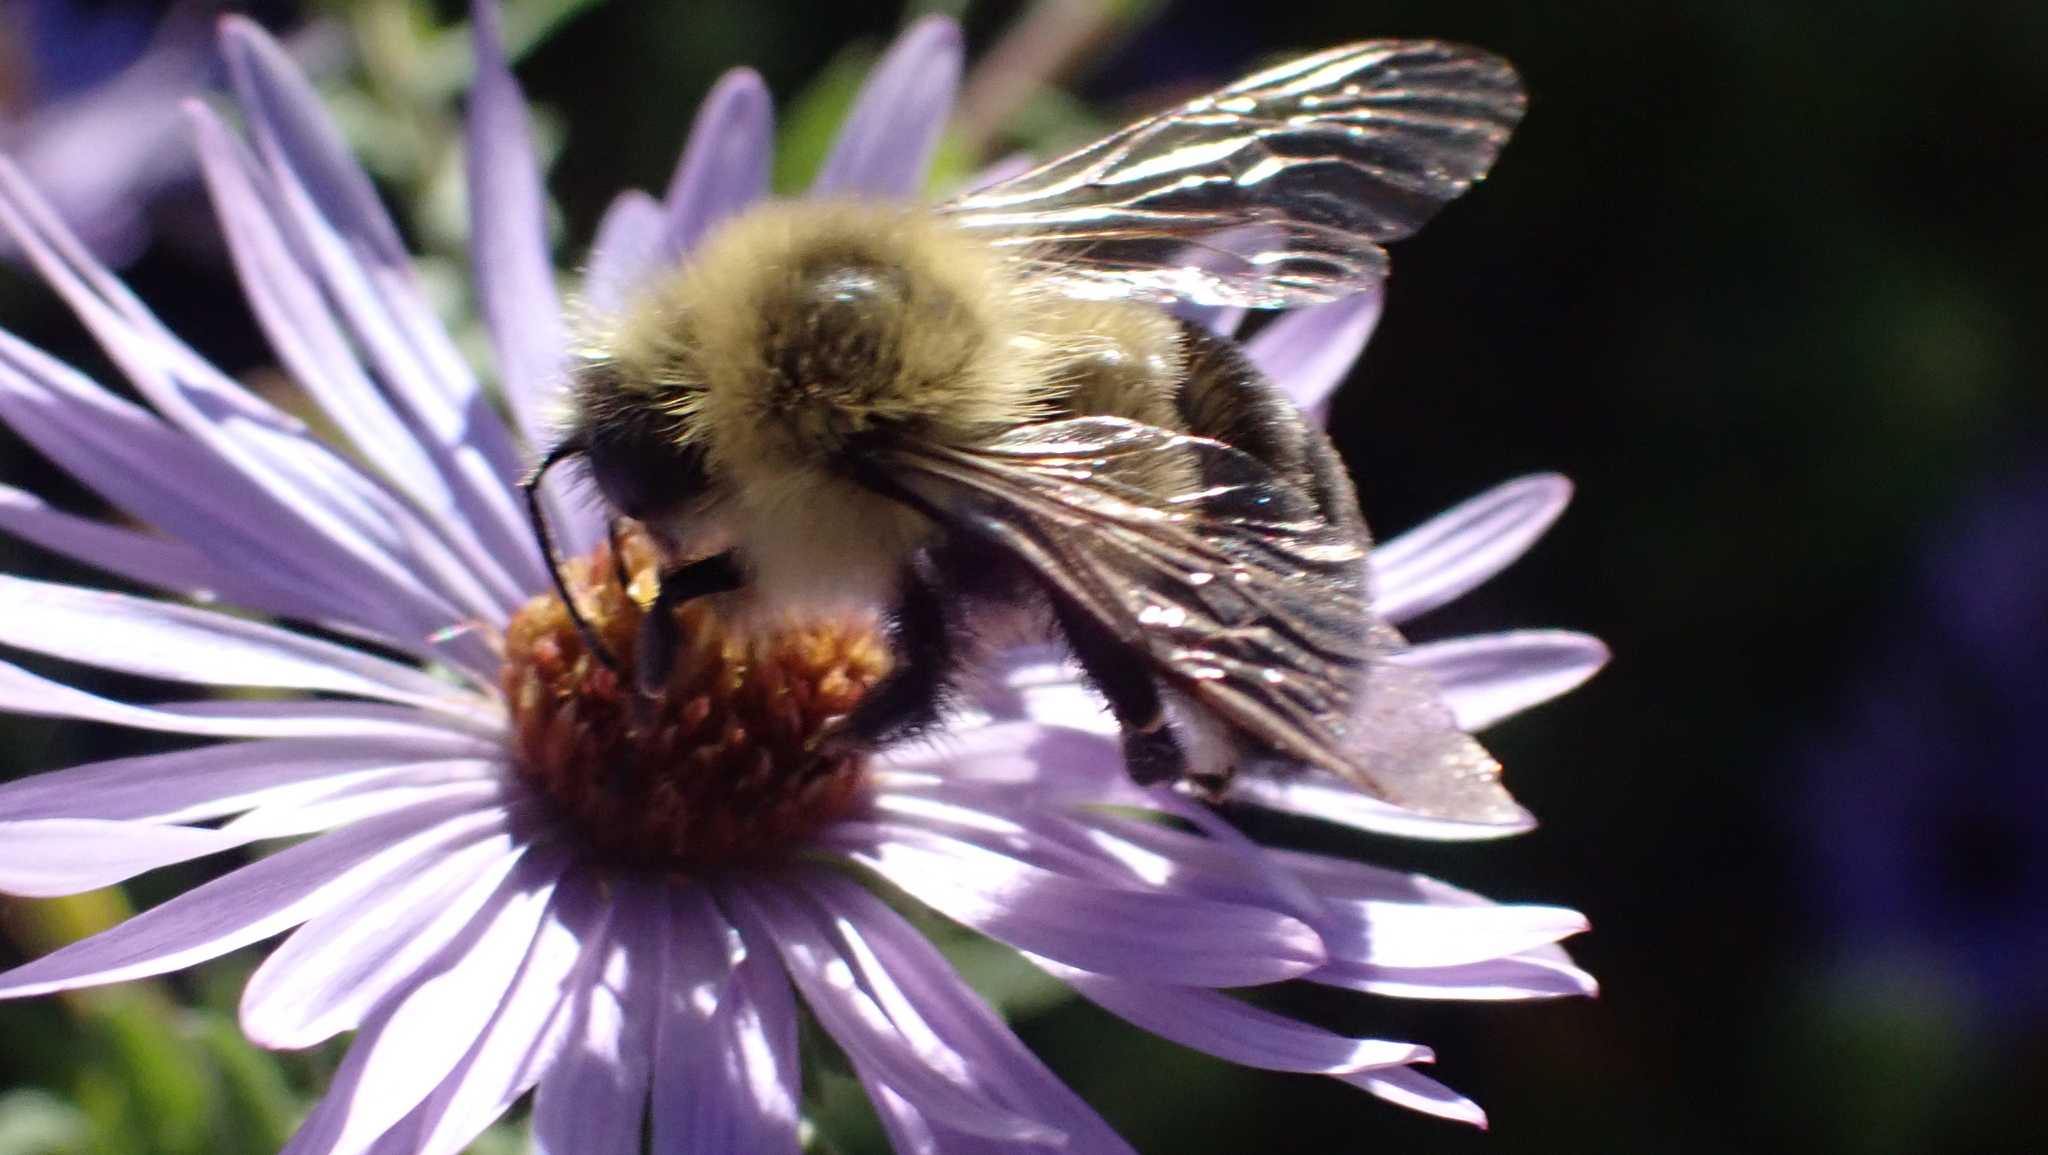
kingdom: Animalia
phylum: Arthropoda
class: Insecta
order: Hymenoptera
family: Apidae
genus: Bombus
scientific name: Bombus impatiens
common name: Common eastern bumble bee
